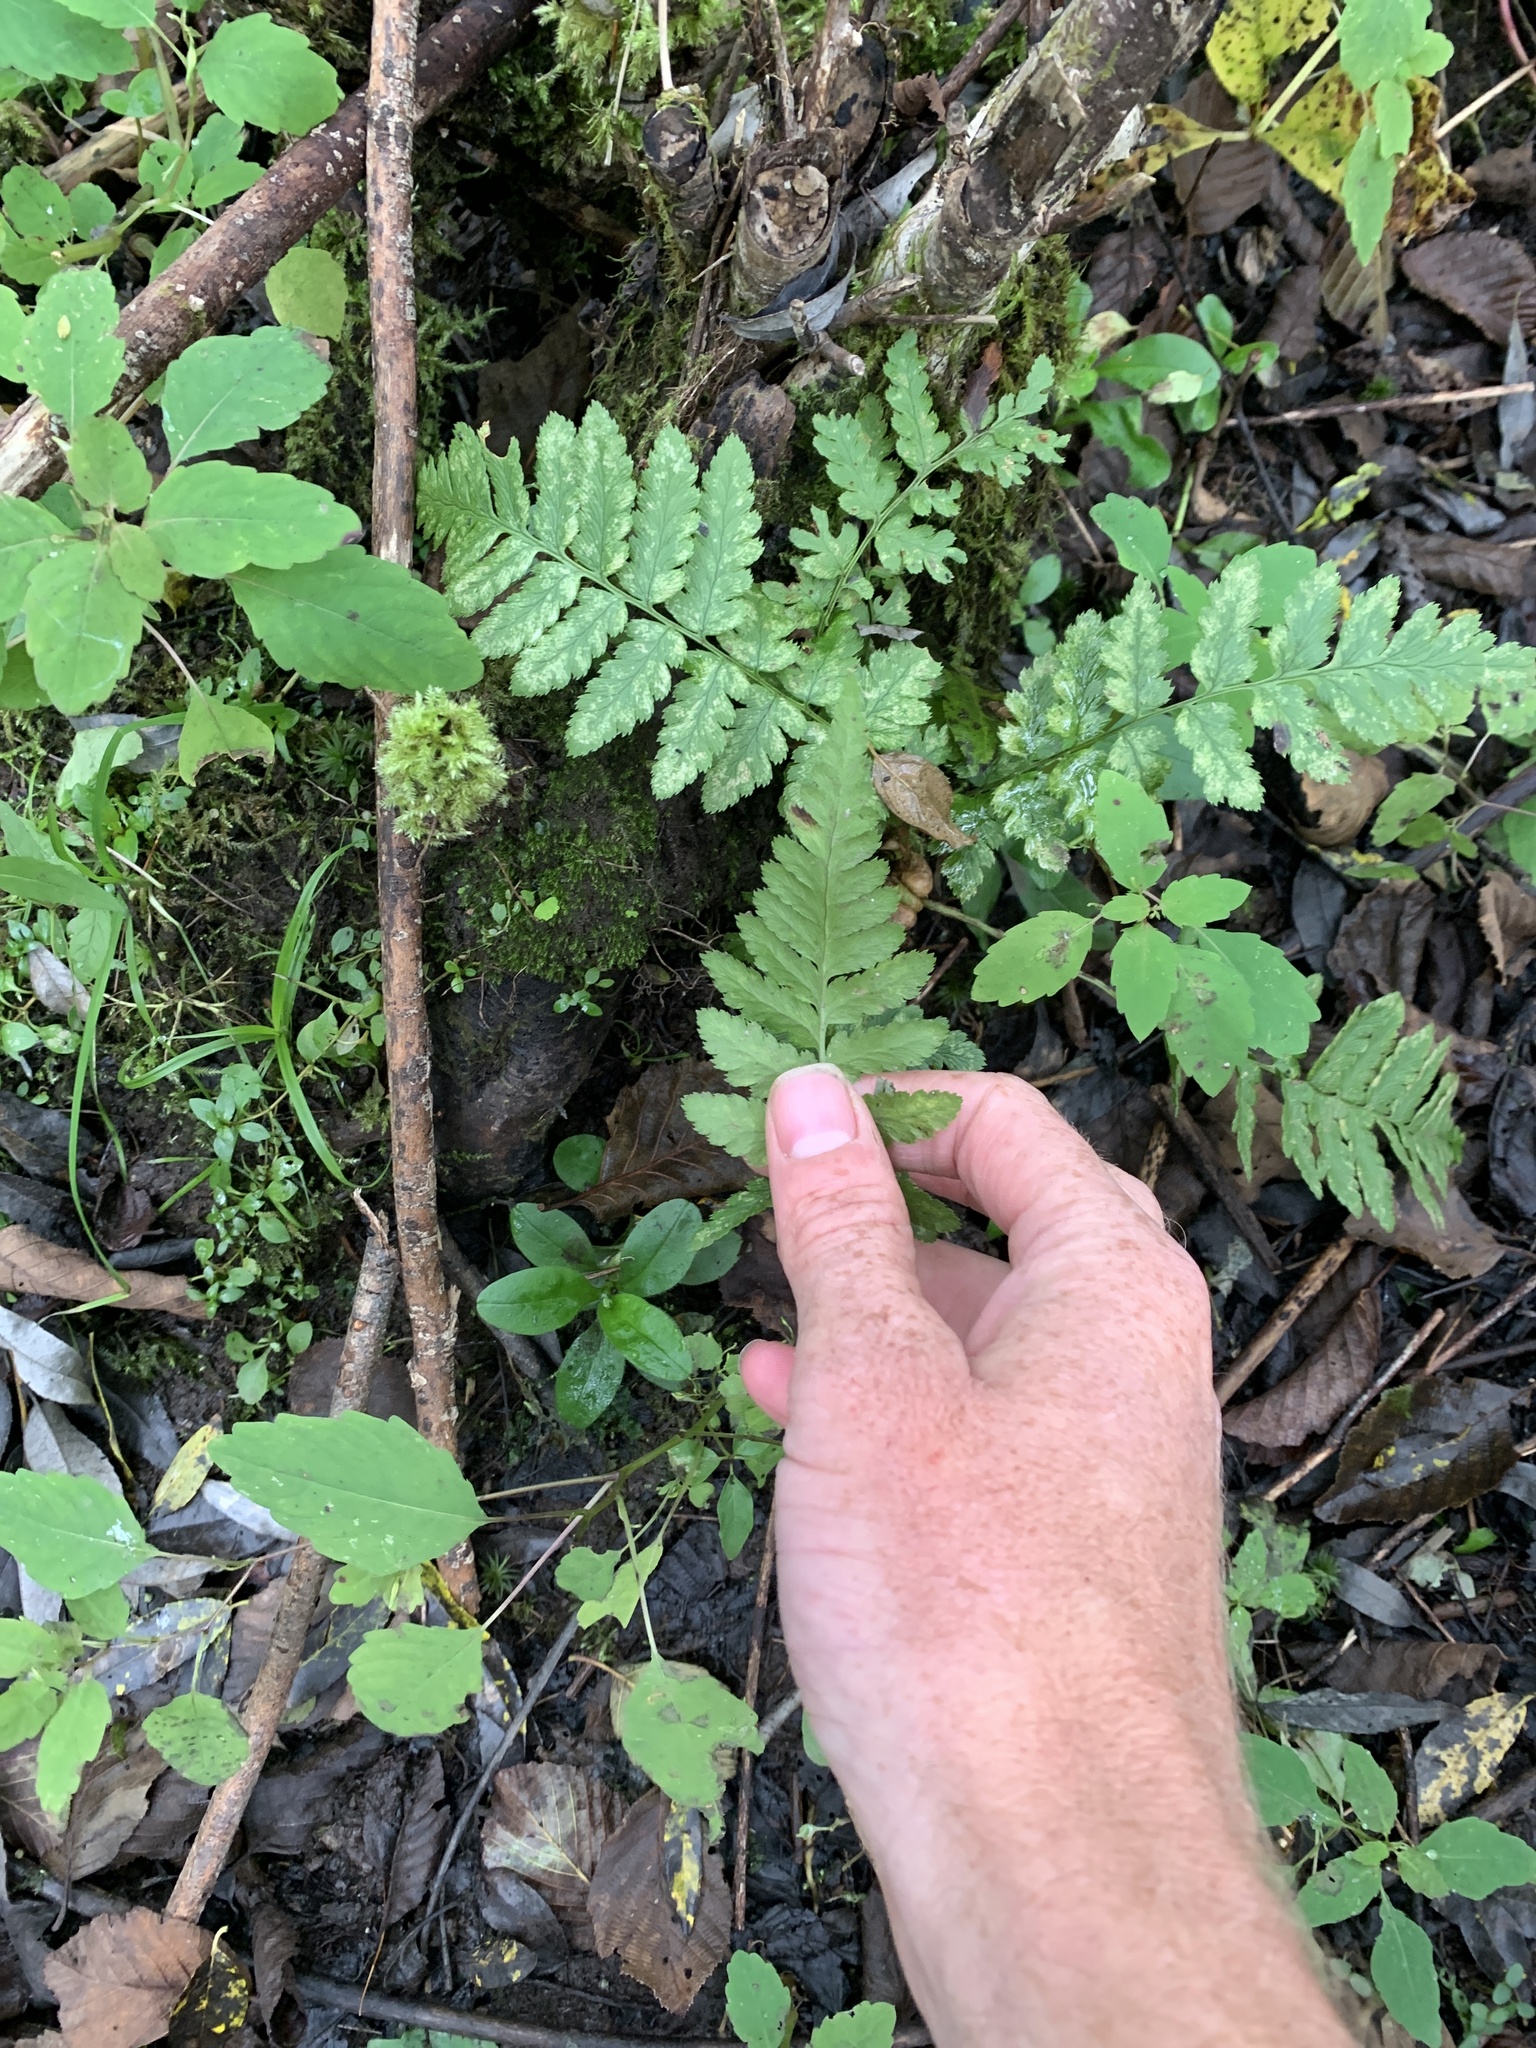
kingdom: Plantae
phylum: Tracheophyta
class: Polypodiopsida
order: Polypodiales
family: Dryopteridaceae
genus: Dryopteris
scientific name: Dryopteris cristata
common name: Crested wood fern
